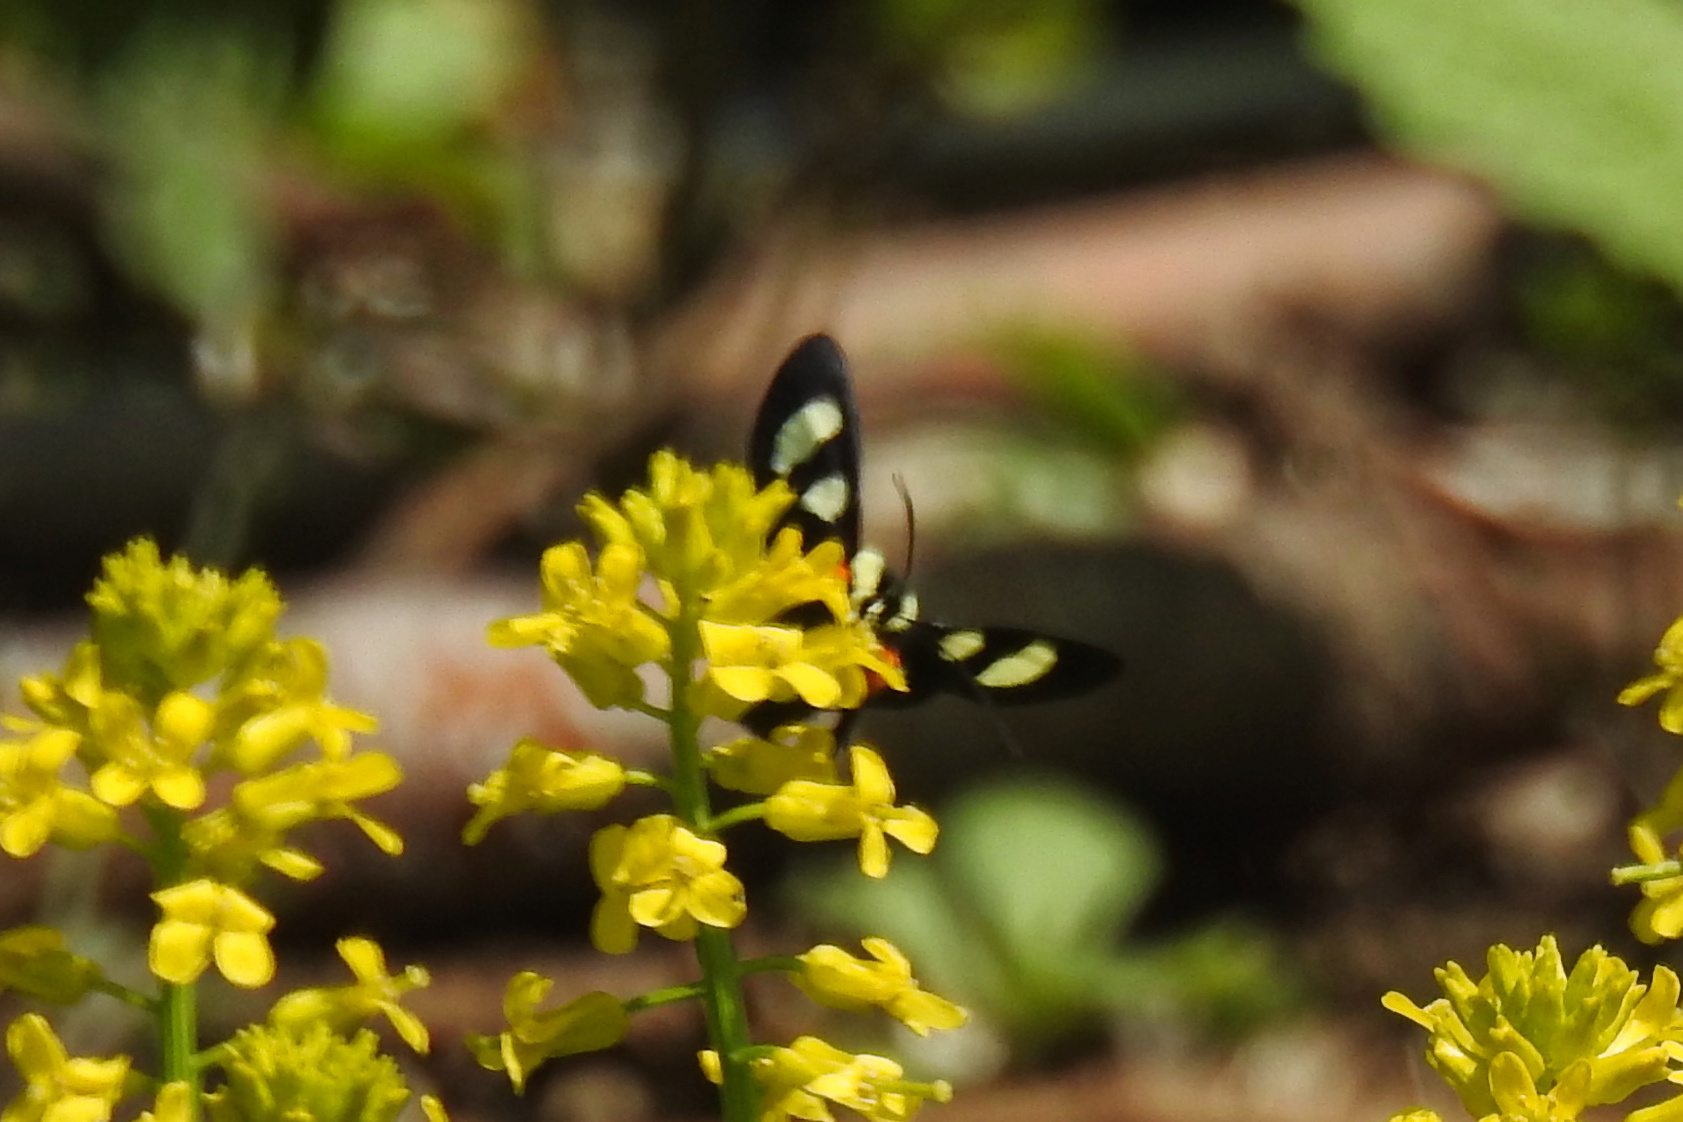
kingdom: Animalia
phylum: Arthropoda
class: Insecta
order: Lepidoptera
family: Noctuidae
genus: Alypia
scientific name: Alypia octomaculata
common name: Eight-spotted forester
